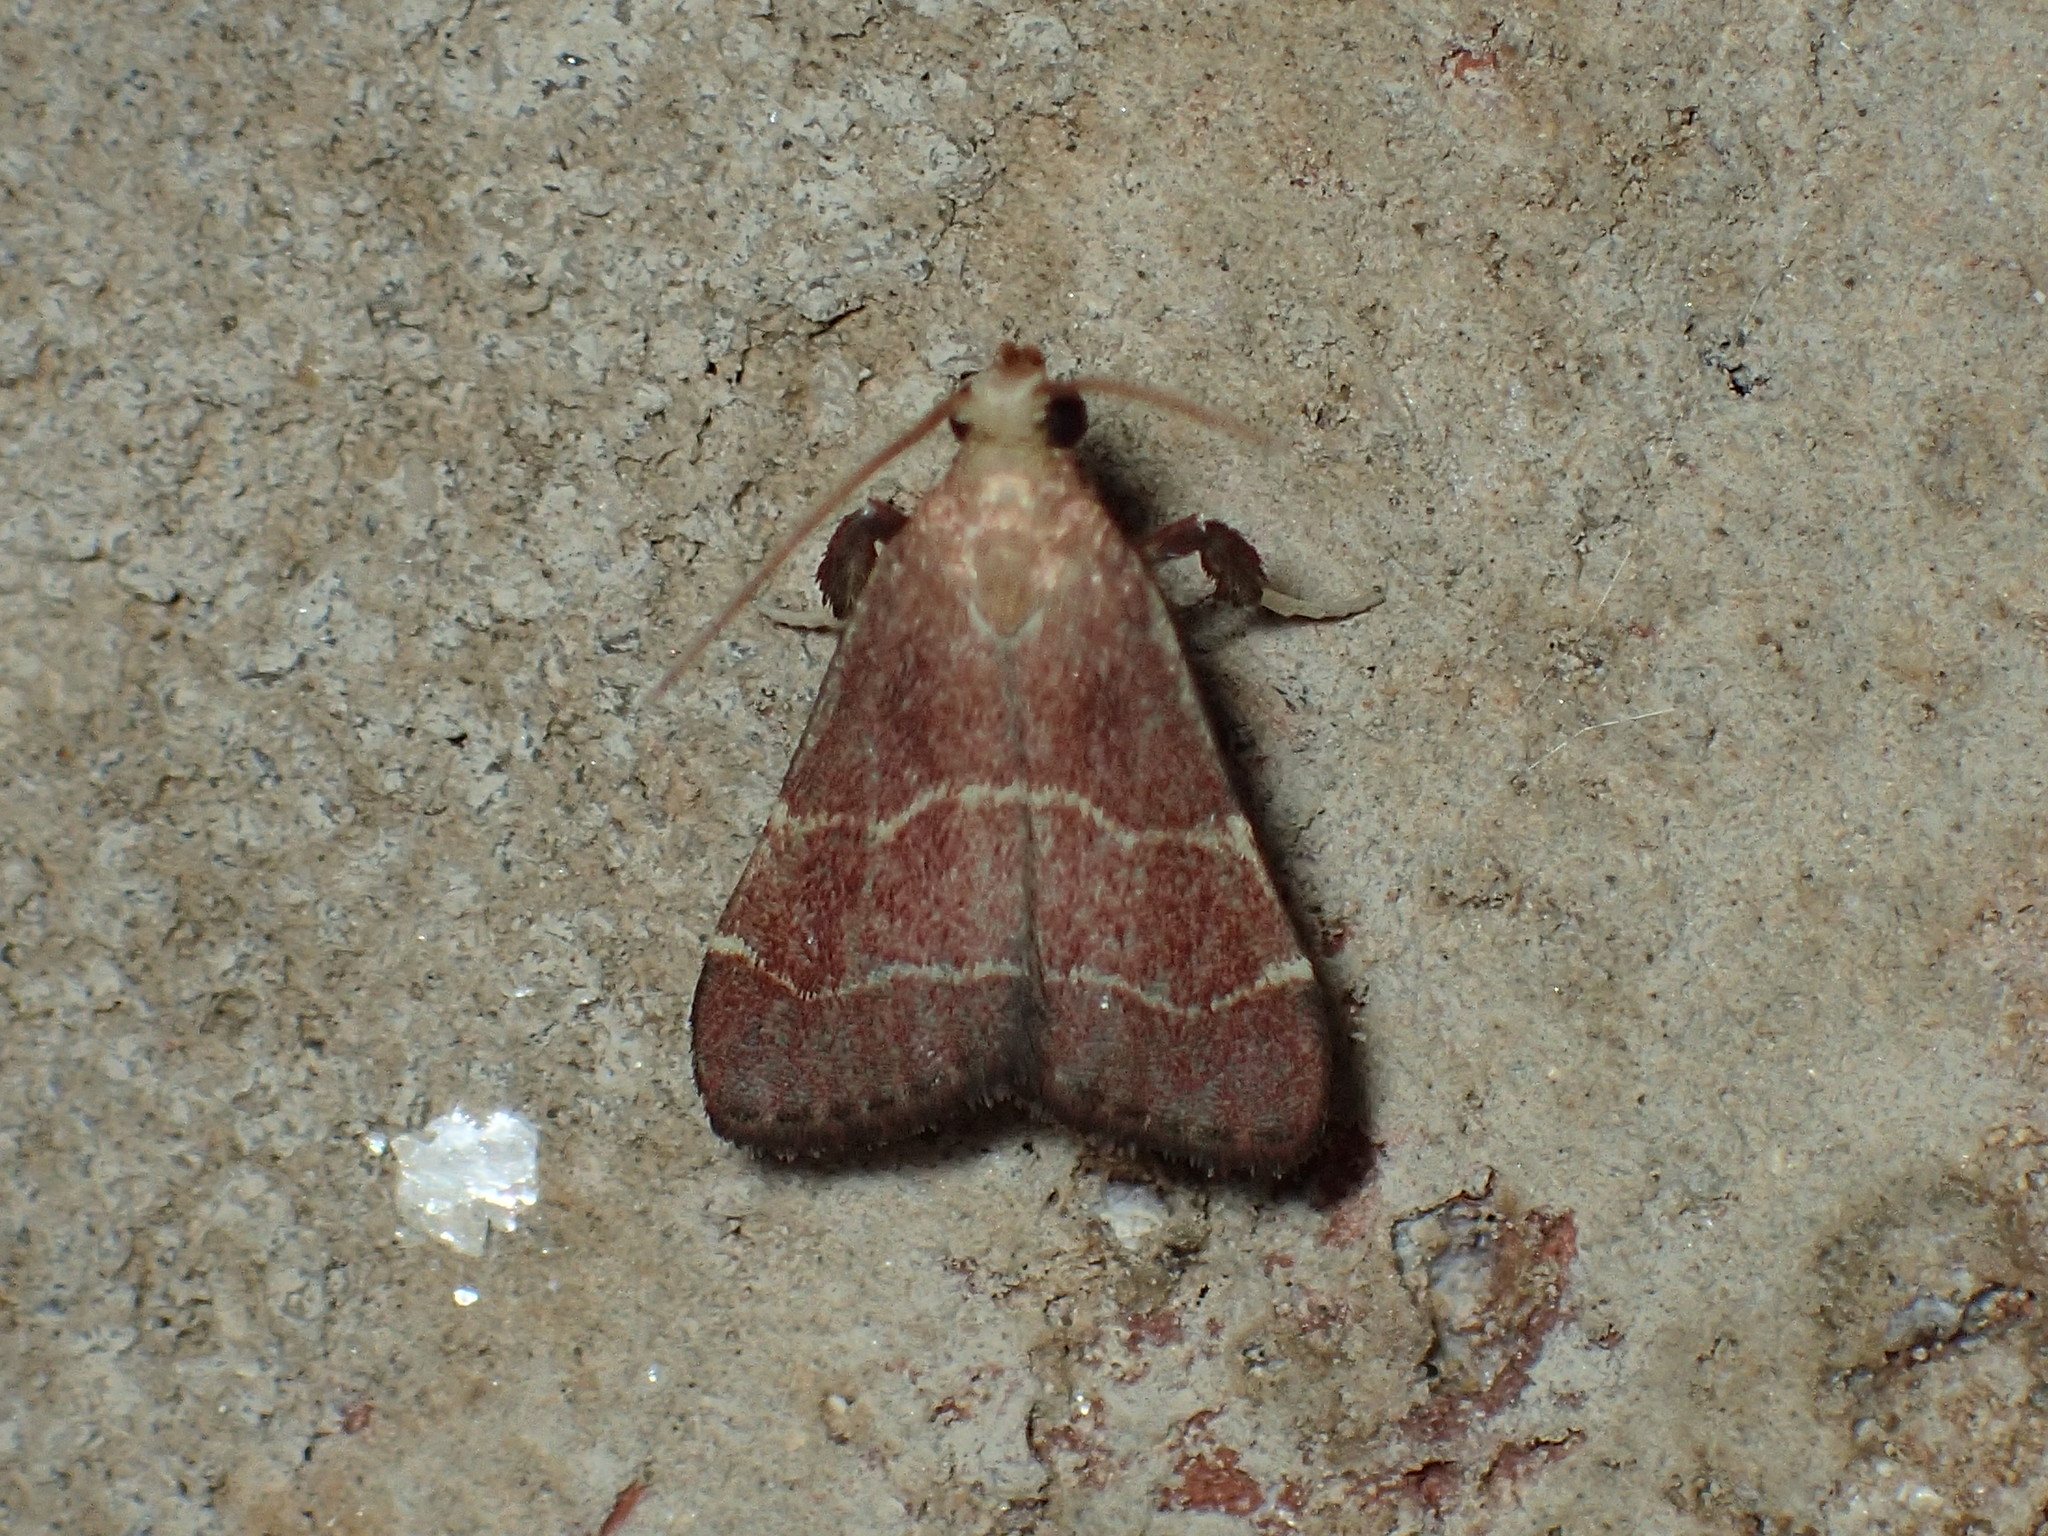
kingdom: Animalia
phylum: Arthropoda
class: Insecta
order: Lepidoptera
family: Pyralidae
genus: Arta
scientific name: Arta statalis
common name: Posturing arta moth
